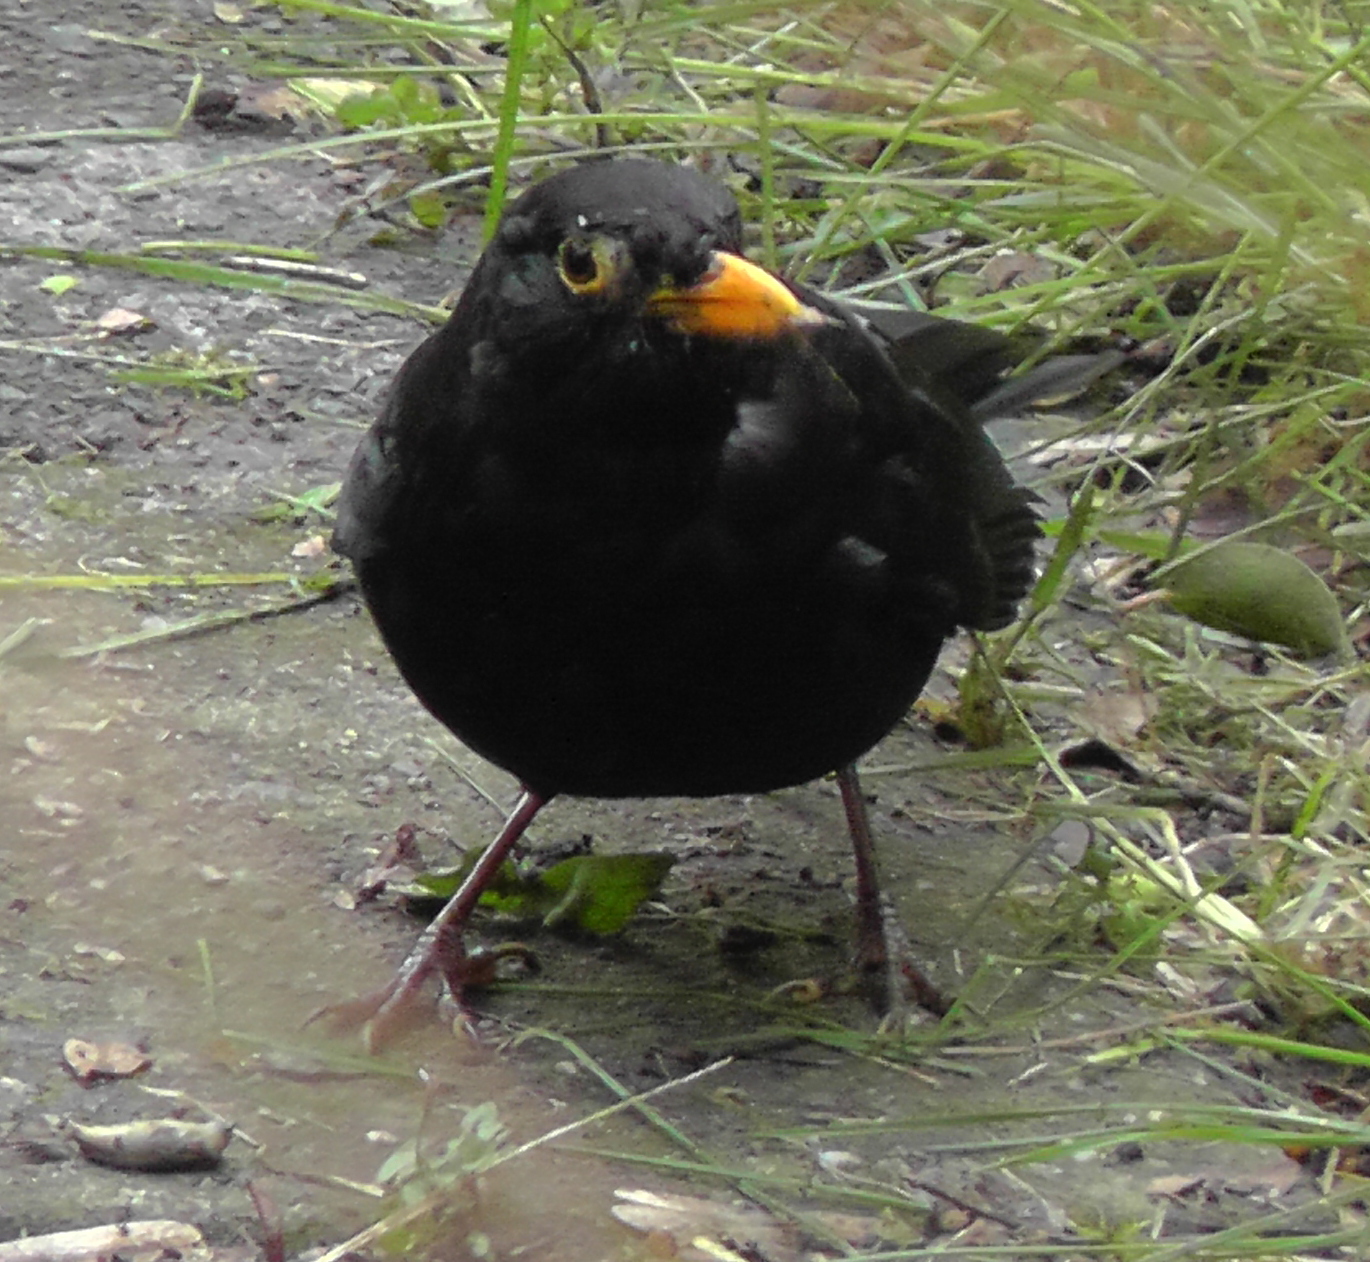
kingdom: Animalia
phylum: Chordata
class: Aves
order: Passeriformes
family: Turdidae
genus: Turdus
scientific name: Turdus merula
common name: Common blackbird
